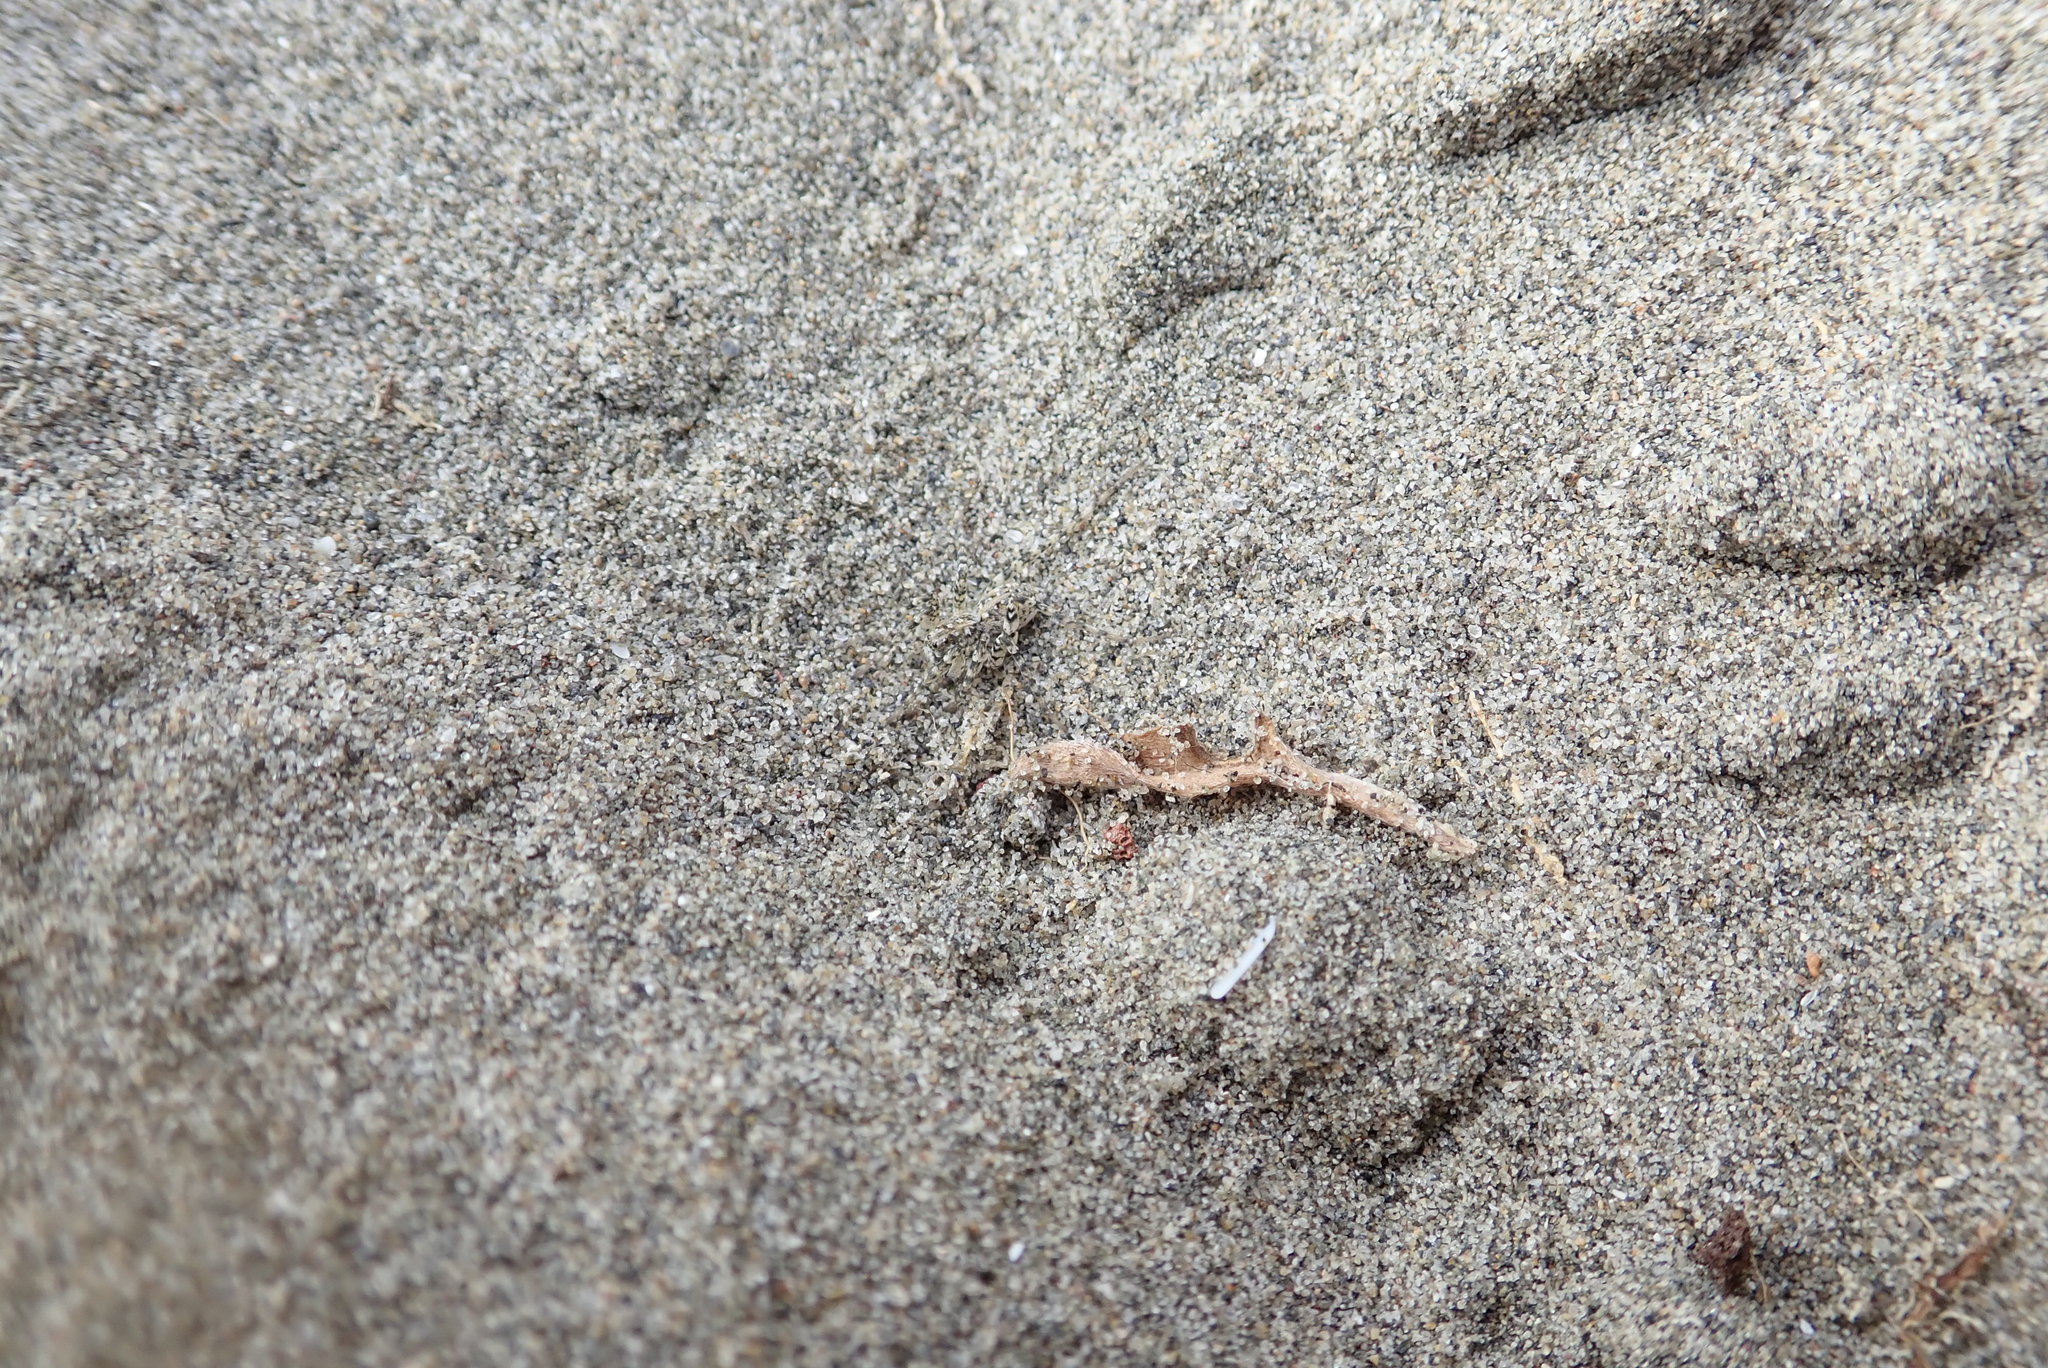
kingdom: Animalia
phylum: Arthropoda
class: Arachnida
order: Araneae
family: Lycosidae
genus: Anoteropsis
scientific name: Anoteropsis litoralis
